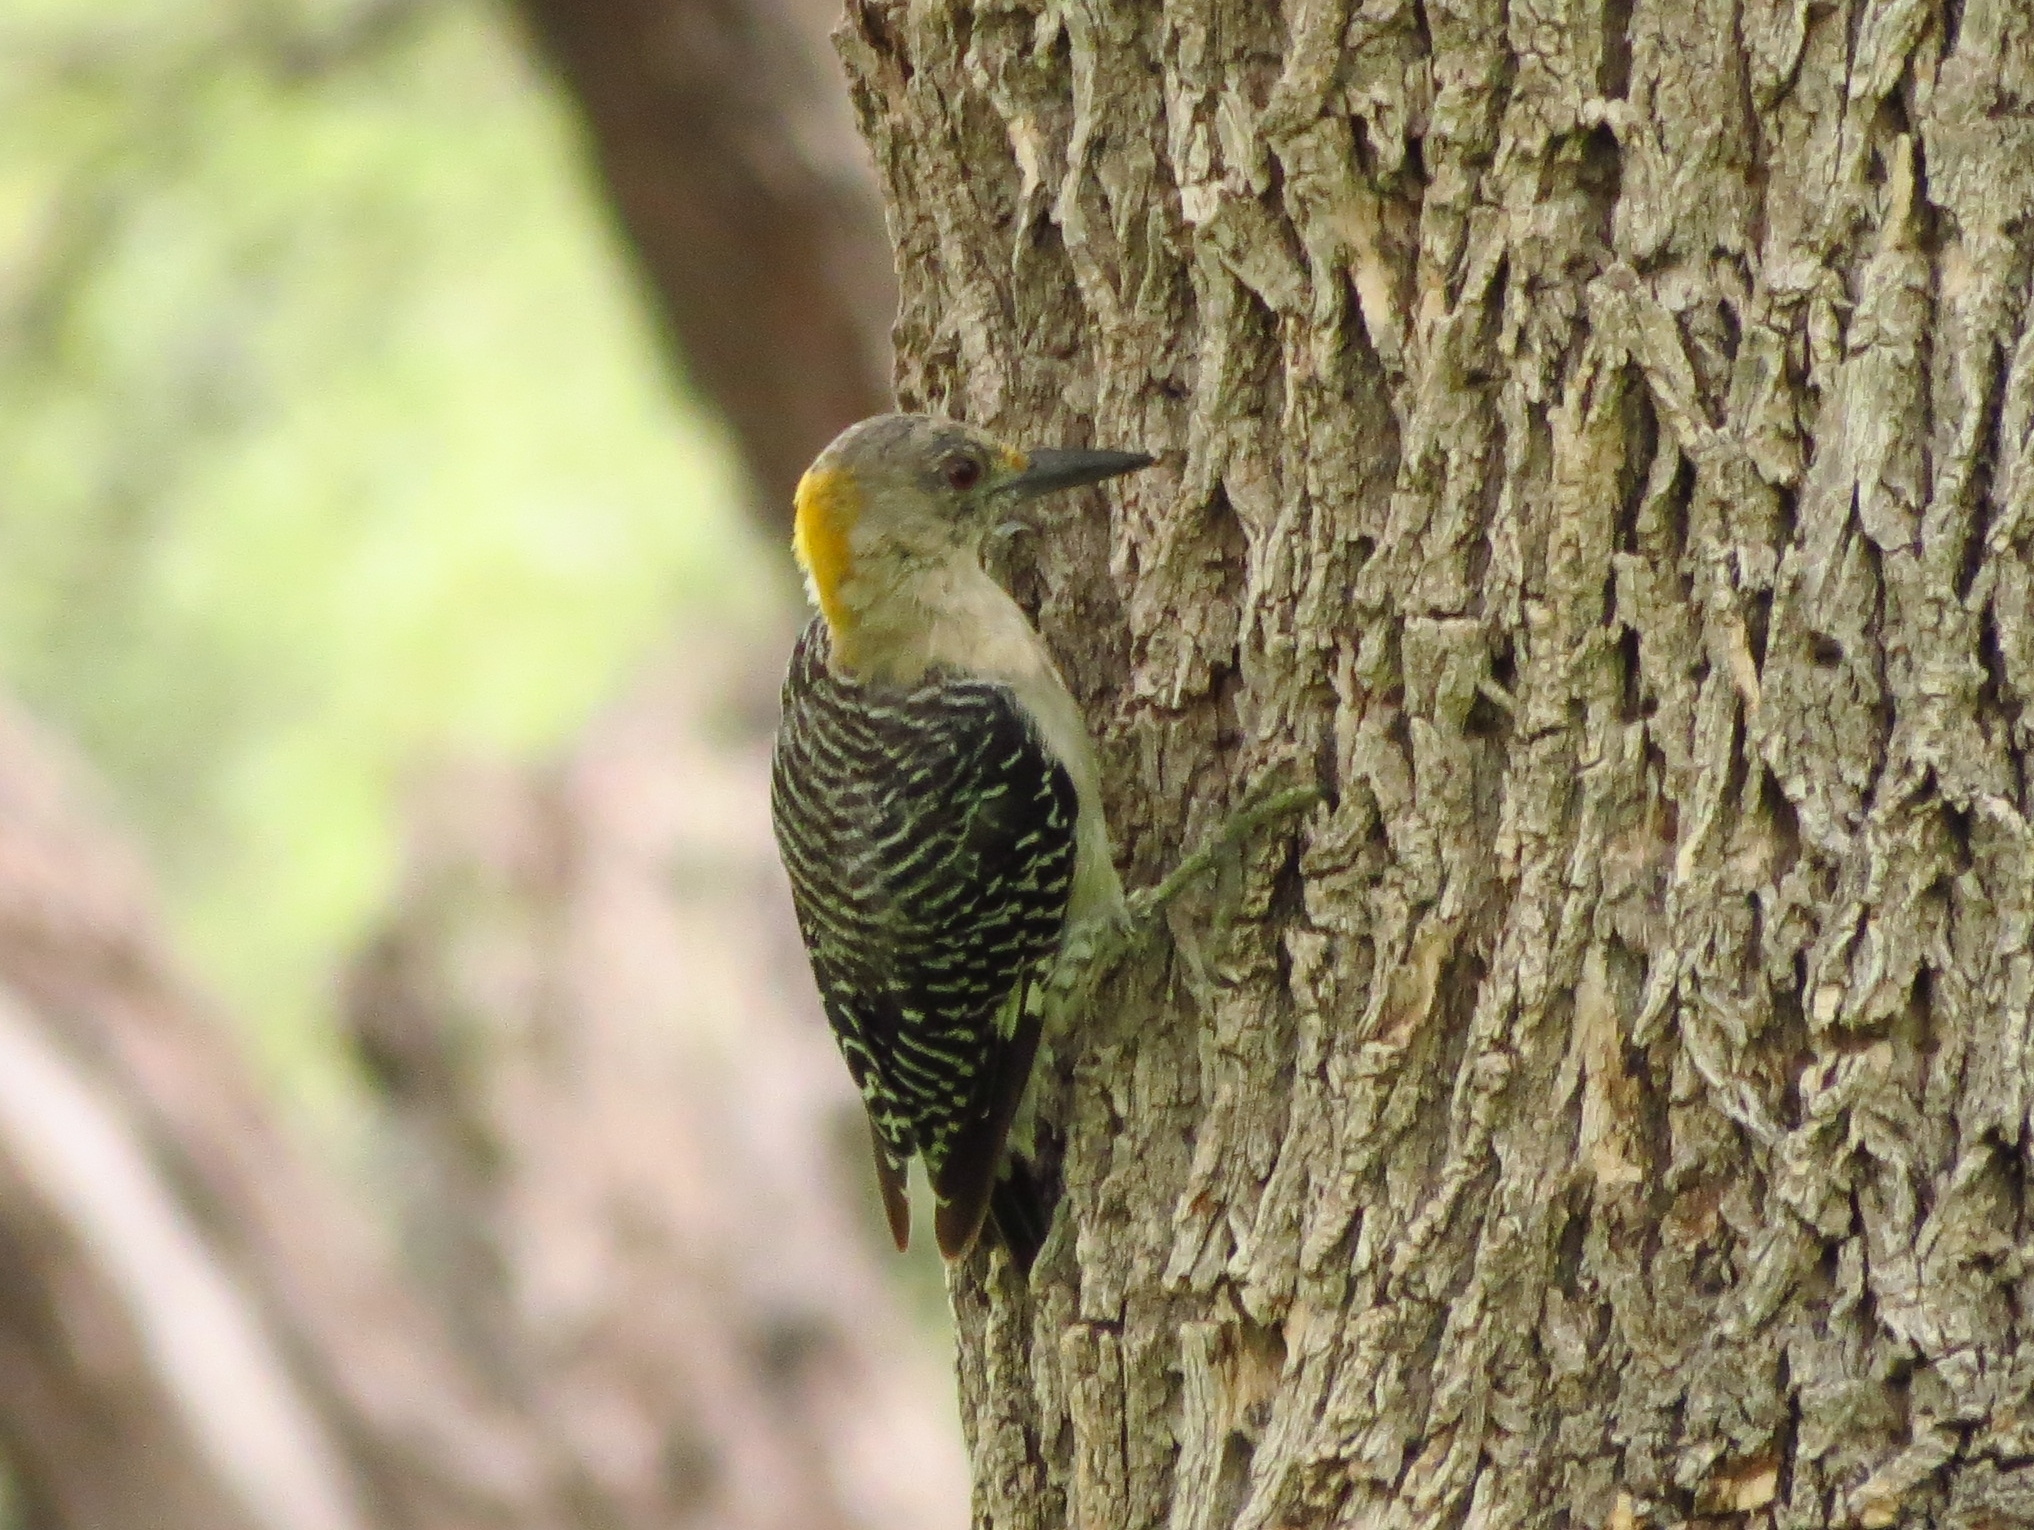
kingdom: Animalia
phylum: Chordata
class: Aves
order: Piciformes
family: Picidae
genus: Melanerpes
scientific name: Melanerpes aurifrons
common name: Golden-fronted woodpecker
